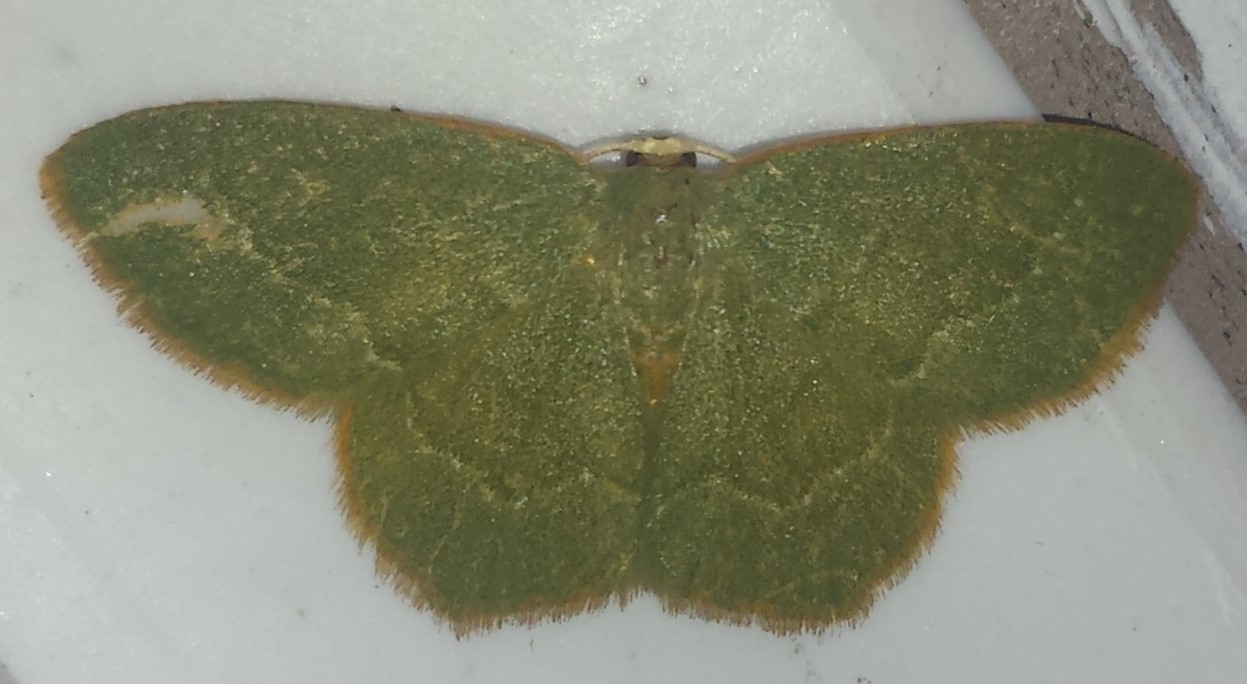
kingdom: Animalia
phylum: Arthropoda
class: Insecta
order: Lepidoptera
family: Geometridae
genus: Thalera
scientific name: Thalera pistasciaria
